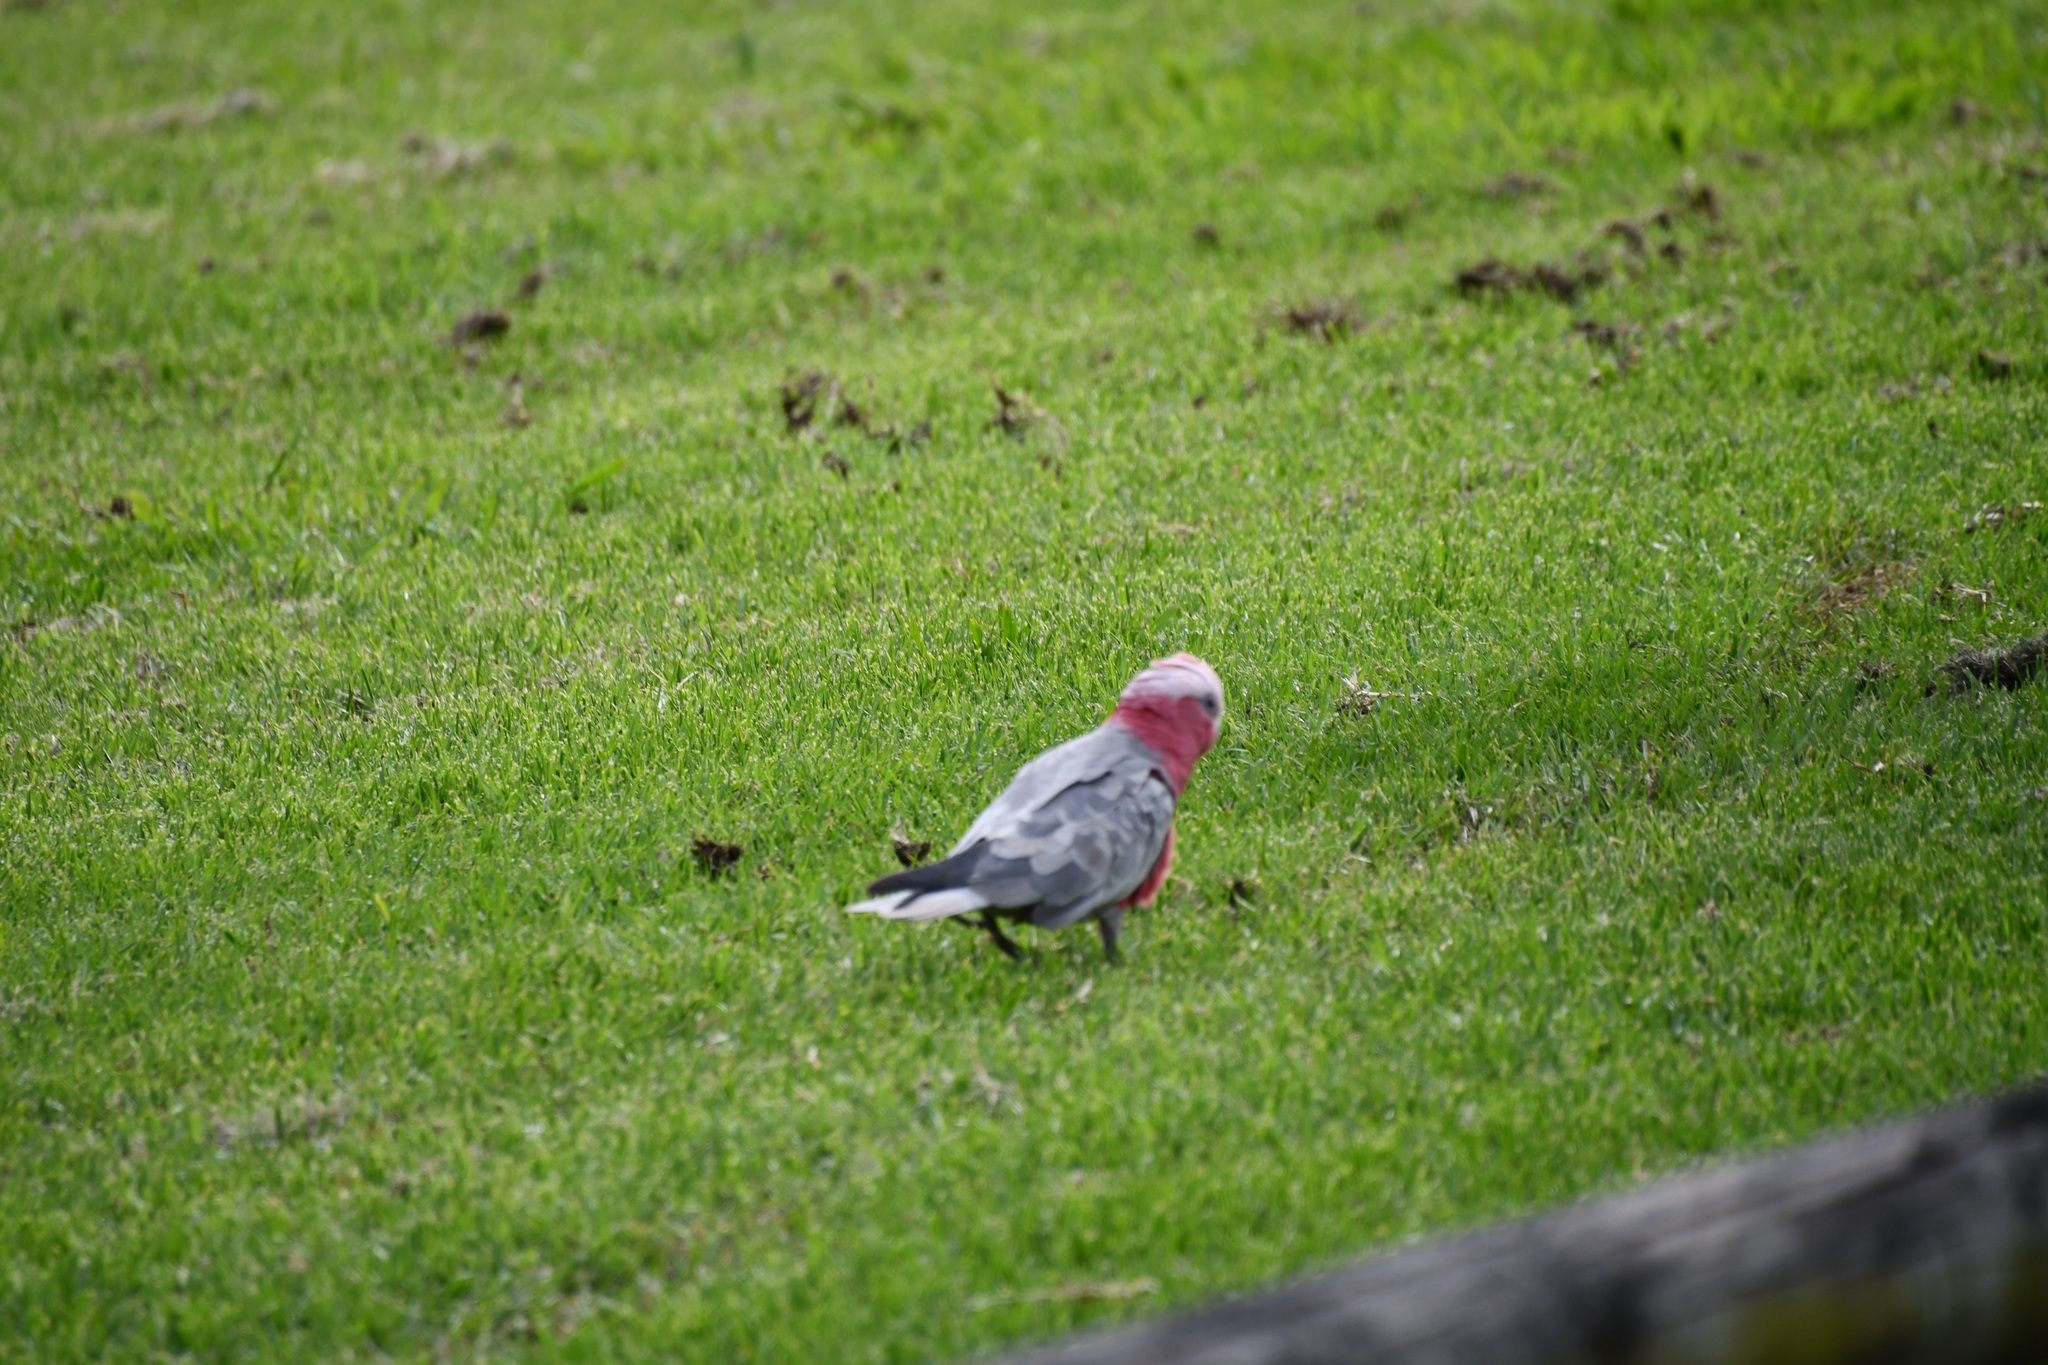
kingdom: Animalia
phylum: Chordata
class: Aves
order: Psittaciformes
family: Psittacidae
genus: Eolophus
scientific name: Eolophus roseicapilla
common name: Galah
